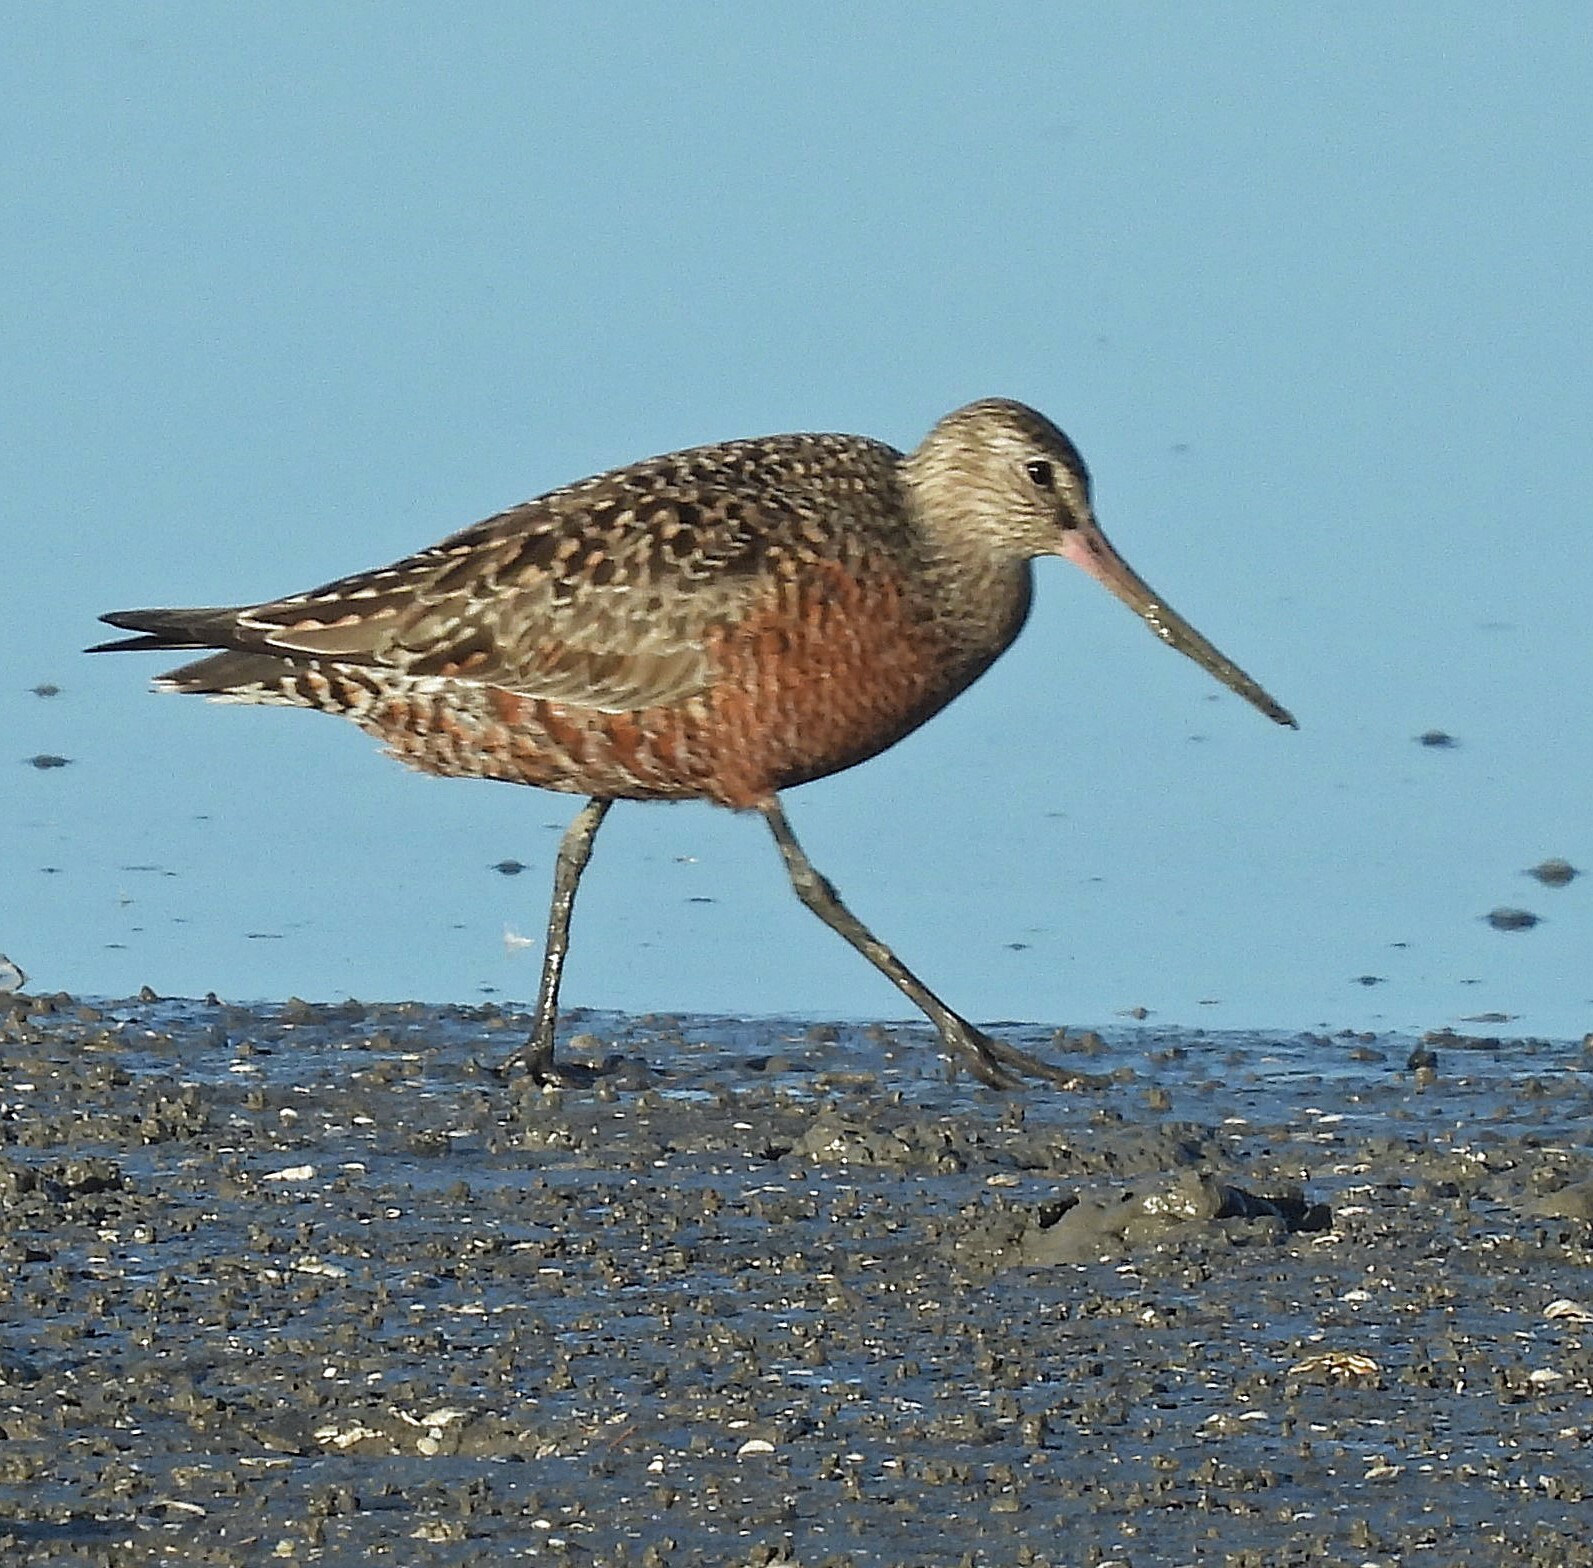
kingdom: Animalia
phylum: Chordata
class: Aves
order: Charadriiformes
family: Scolopacidae
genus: Limosa
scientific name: Limosa haemastica
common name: Hudsonian godwit
